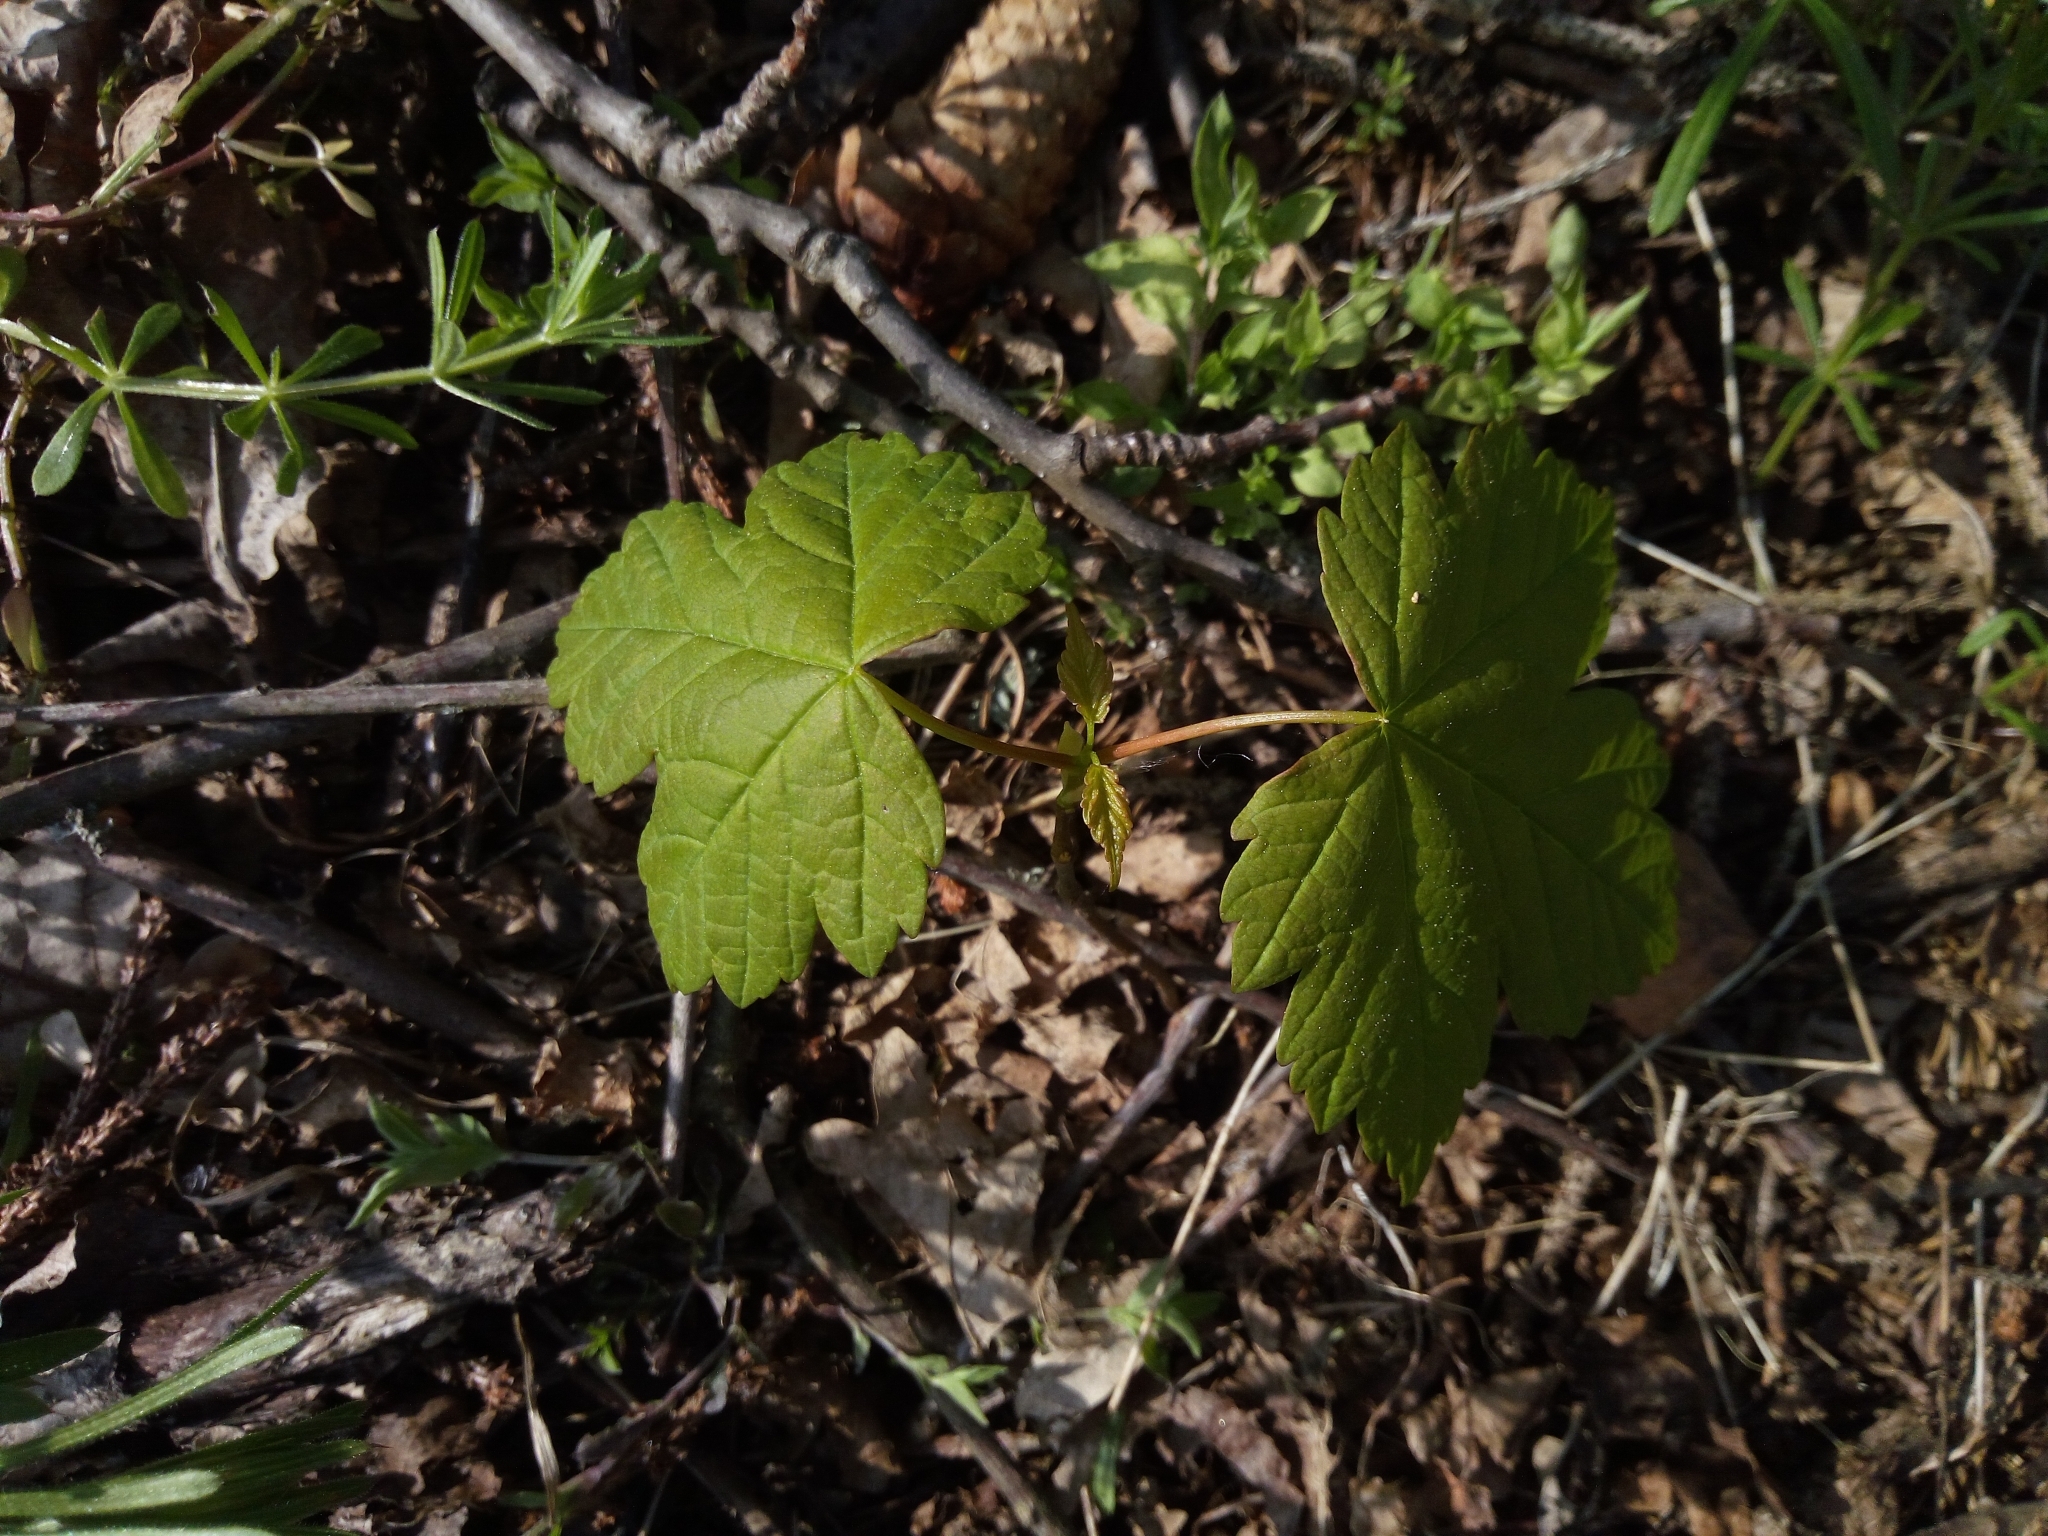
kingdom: Plantae
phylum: Tracheophyta
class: Magnoliopsida
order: Sapindales
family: Sapindaceae
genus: Acer
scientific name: Acer pseudoplatanus
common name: Sycamore
